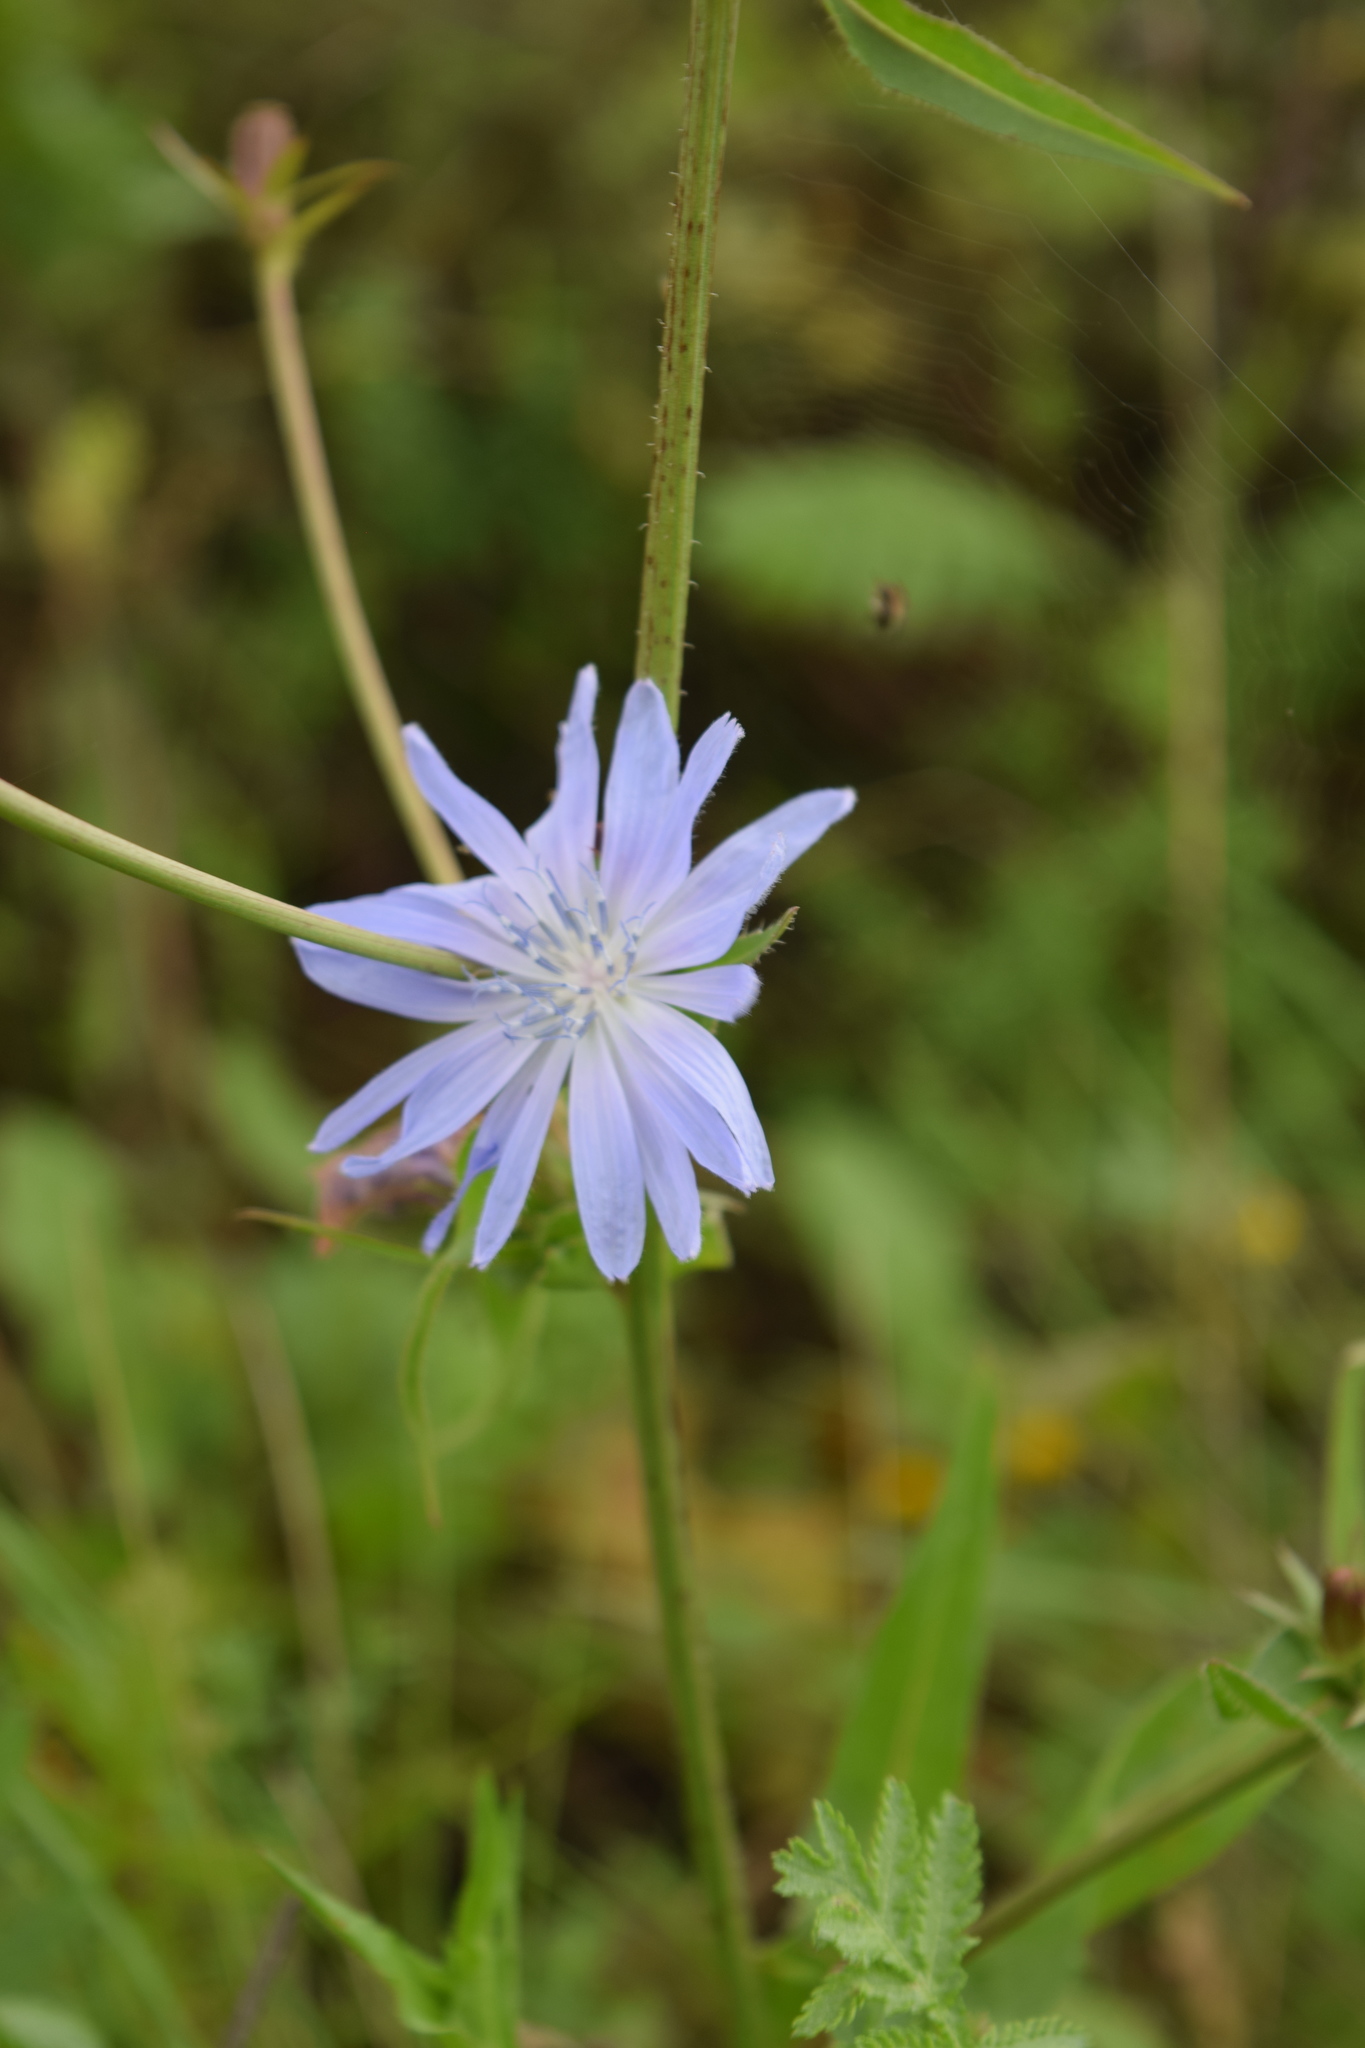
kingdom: Plantae
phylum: Tracheophyta
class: Magnoliopsida
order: Asterales
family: Asteraceae
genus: Cichorium
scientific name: Cichorium intybus
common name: Chicory
